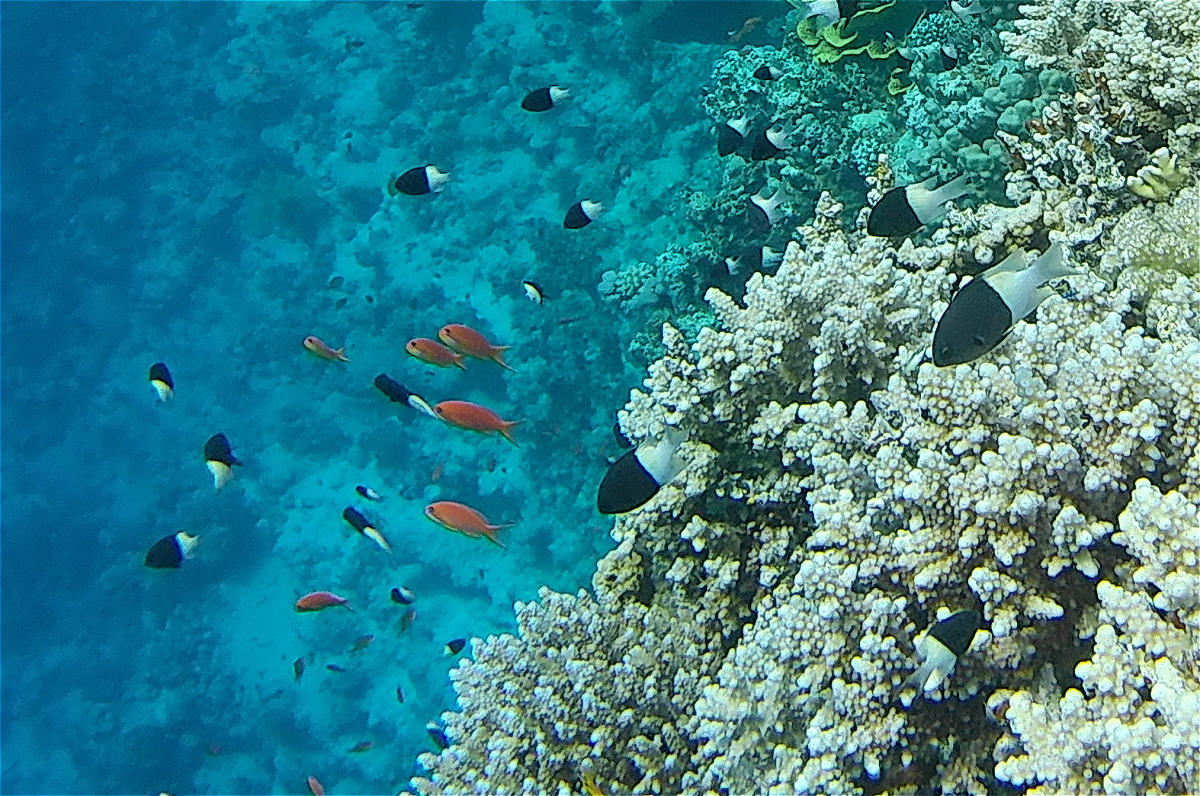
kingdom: Animalia
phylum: Chordata
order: Perciformes
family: Pomacentridae
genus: Chromis
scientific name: Chromis dimidiata
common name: Half-and-half chromis
